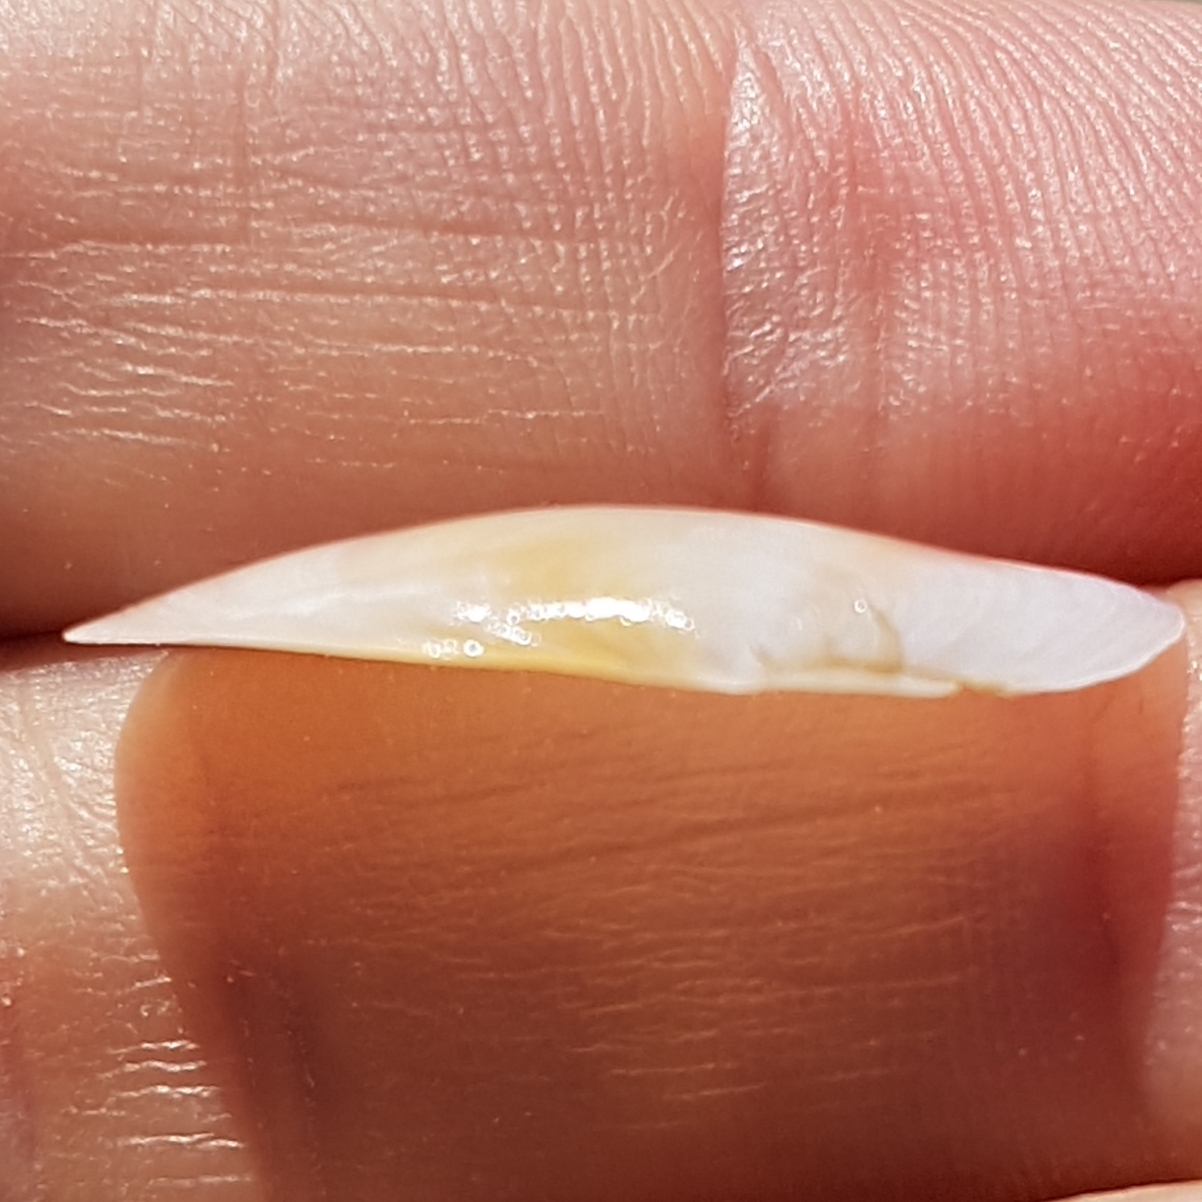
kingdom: Animalia
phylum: Mollusca
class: Bivalvia
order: Cardiida
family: Tellinidae
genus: Macomangulus
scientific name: Macomangulus tenuis
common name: Thin tellin
